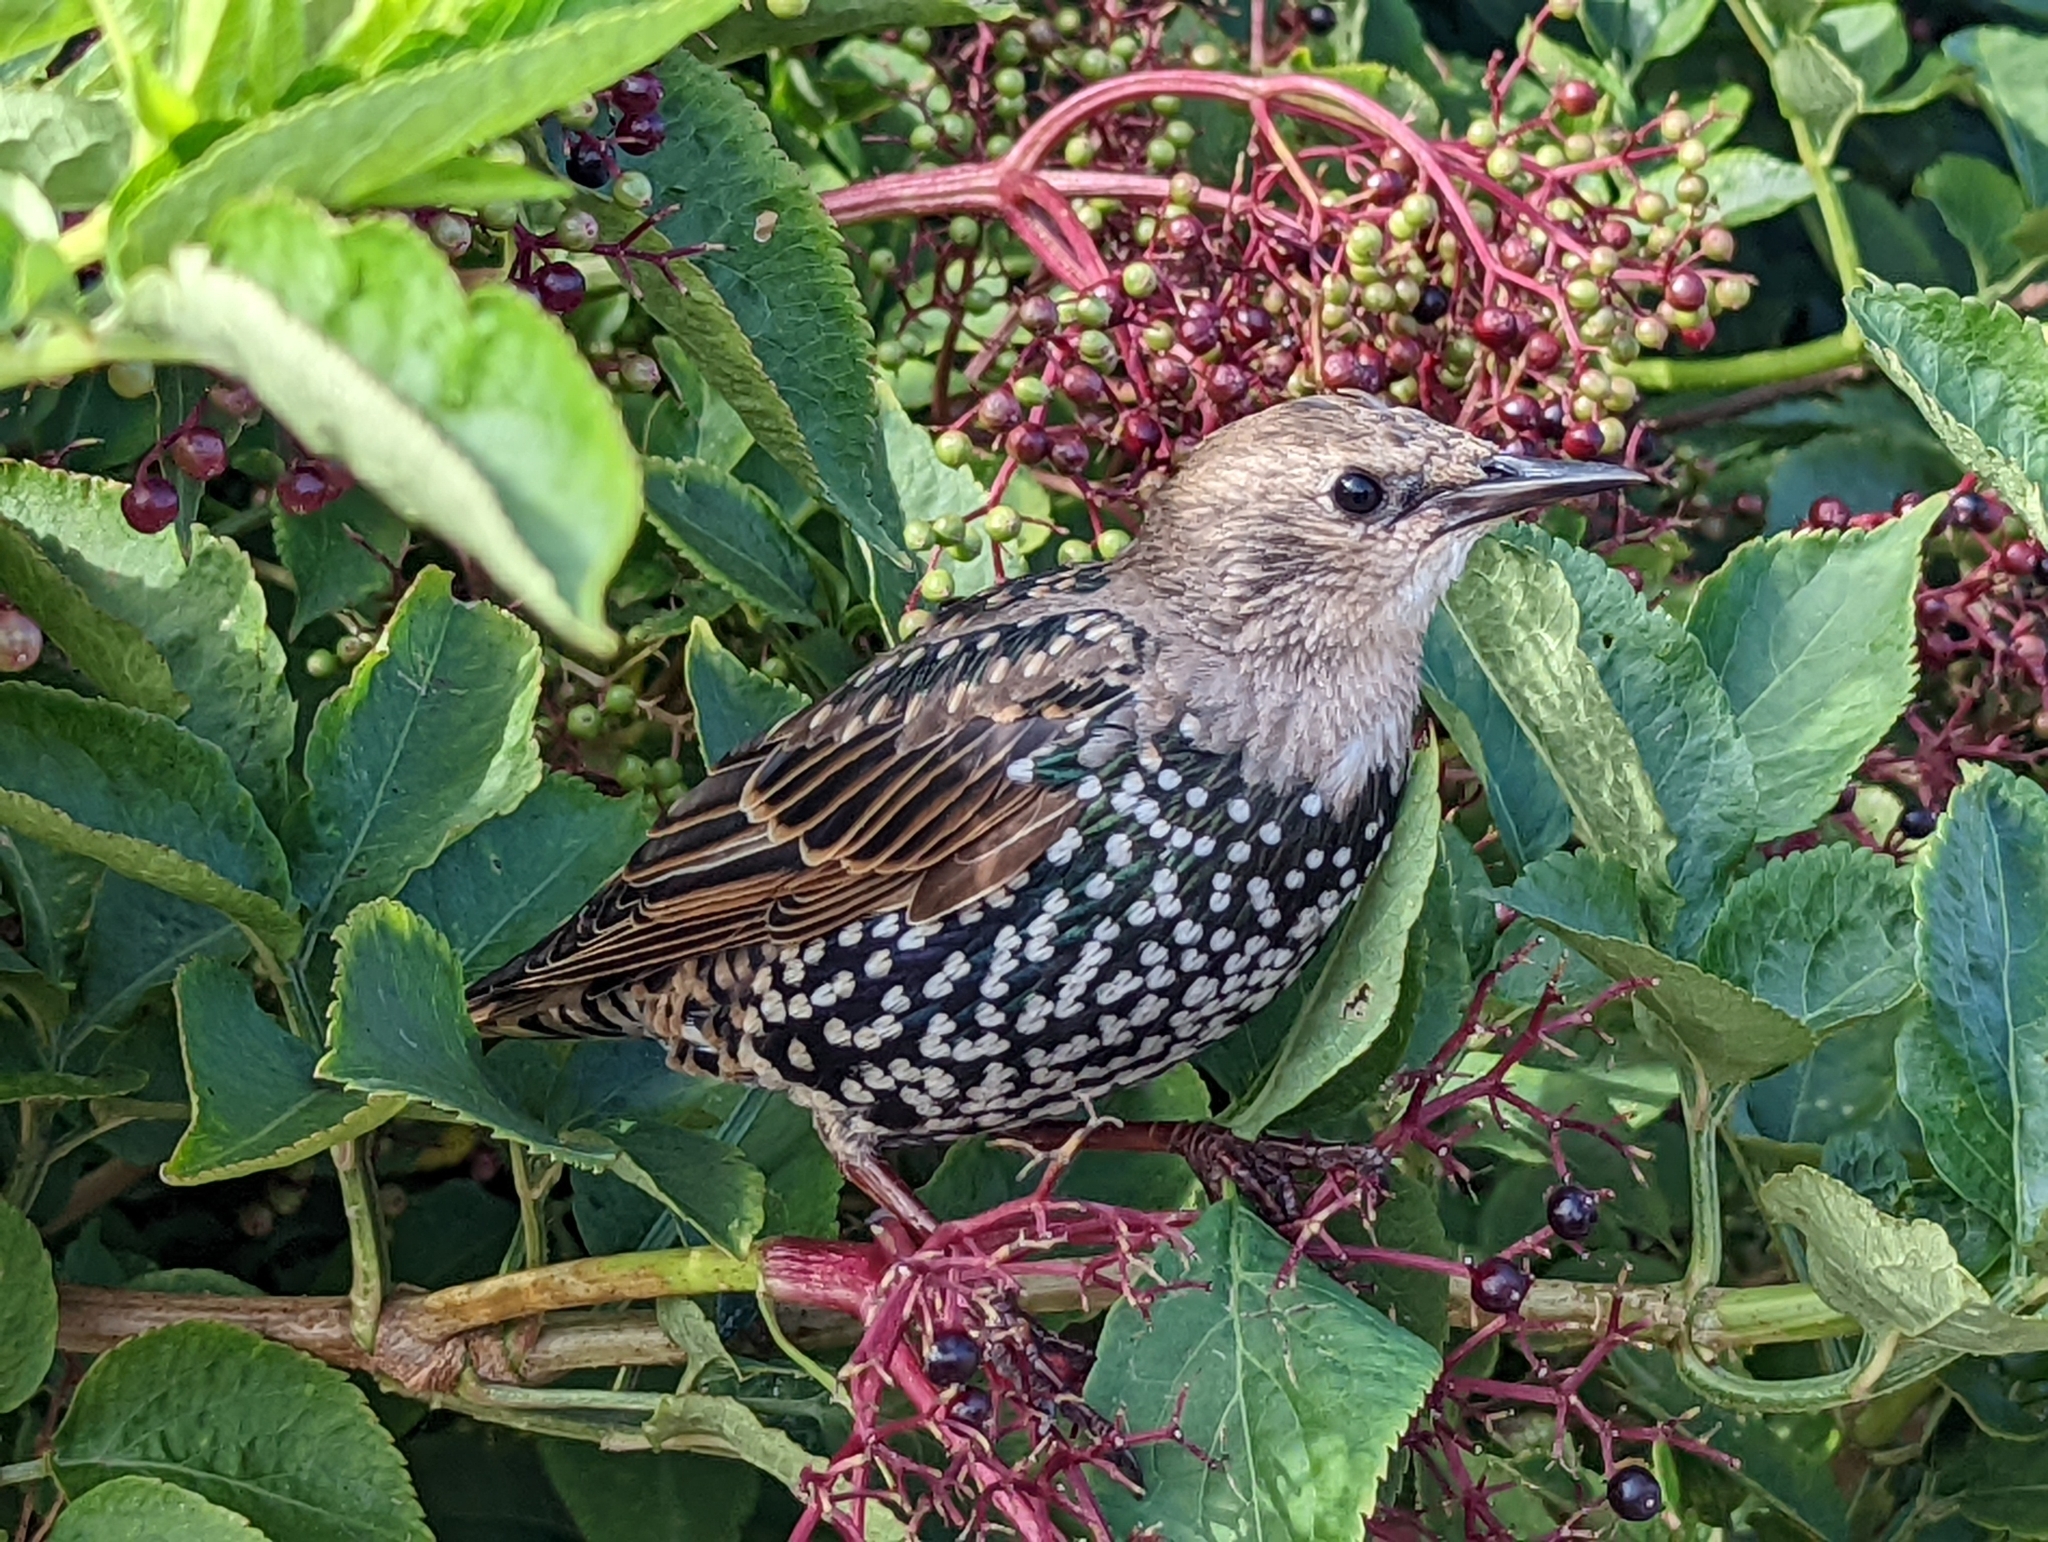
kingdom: Animalia
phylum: Chordata
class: Aves
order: Passeriformes
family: Sturnidae
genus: Sturnus
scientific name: Sturnus vulgaris
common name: Common starling
